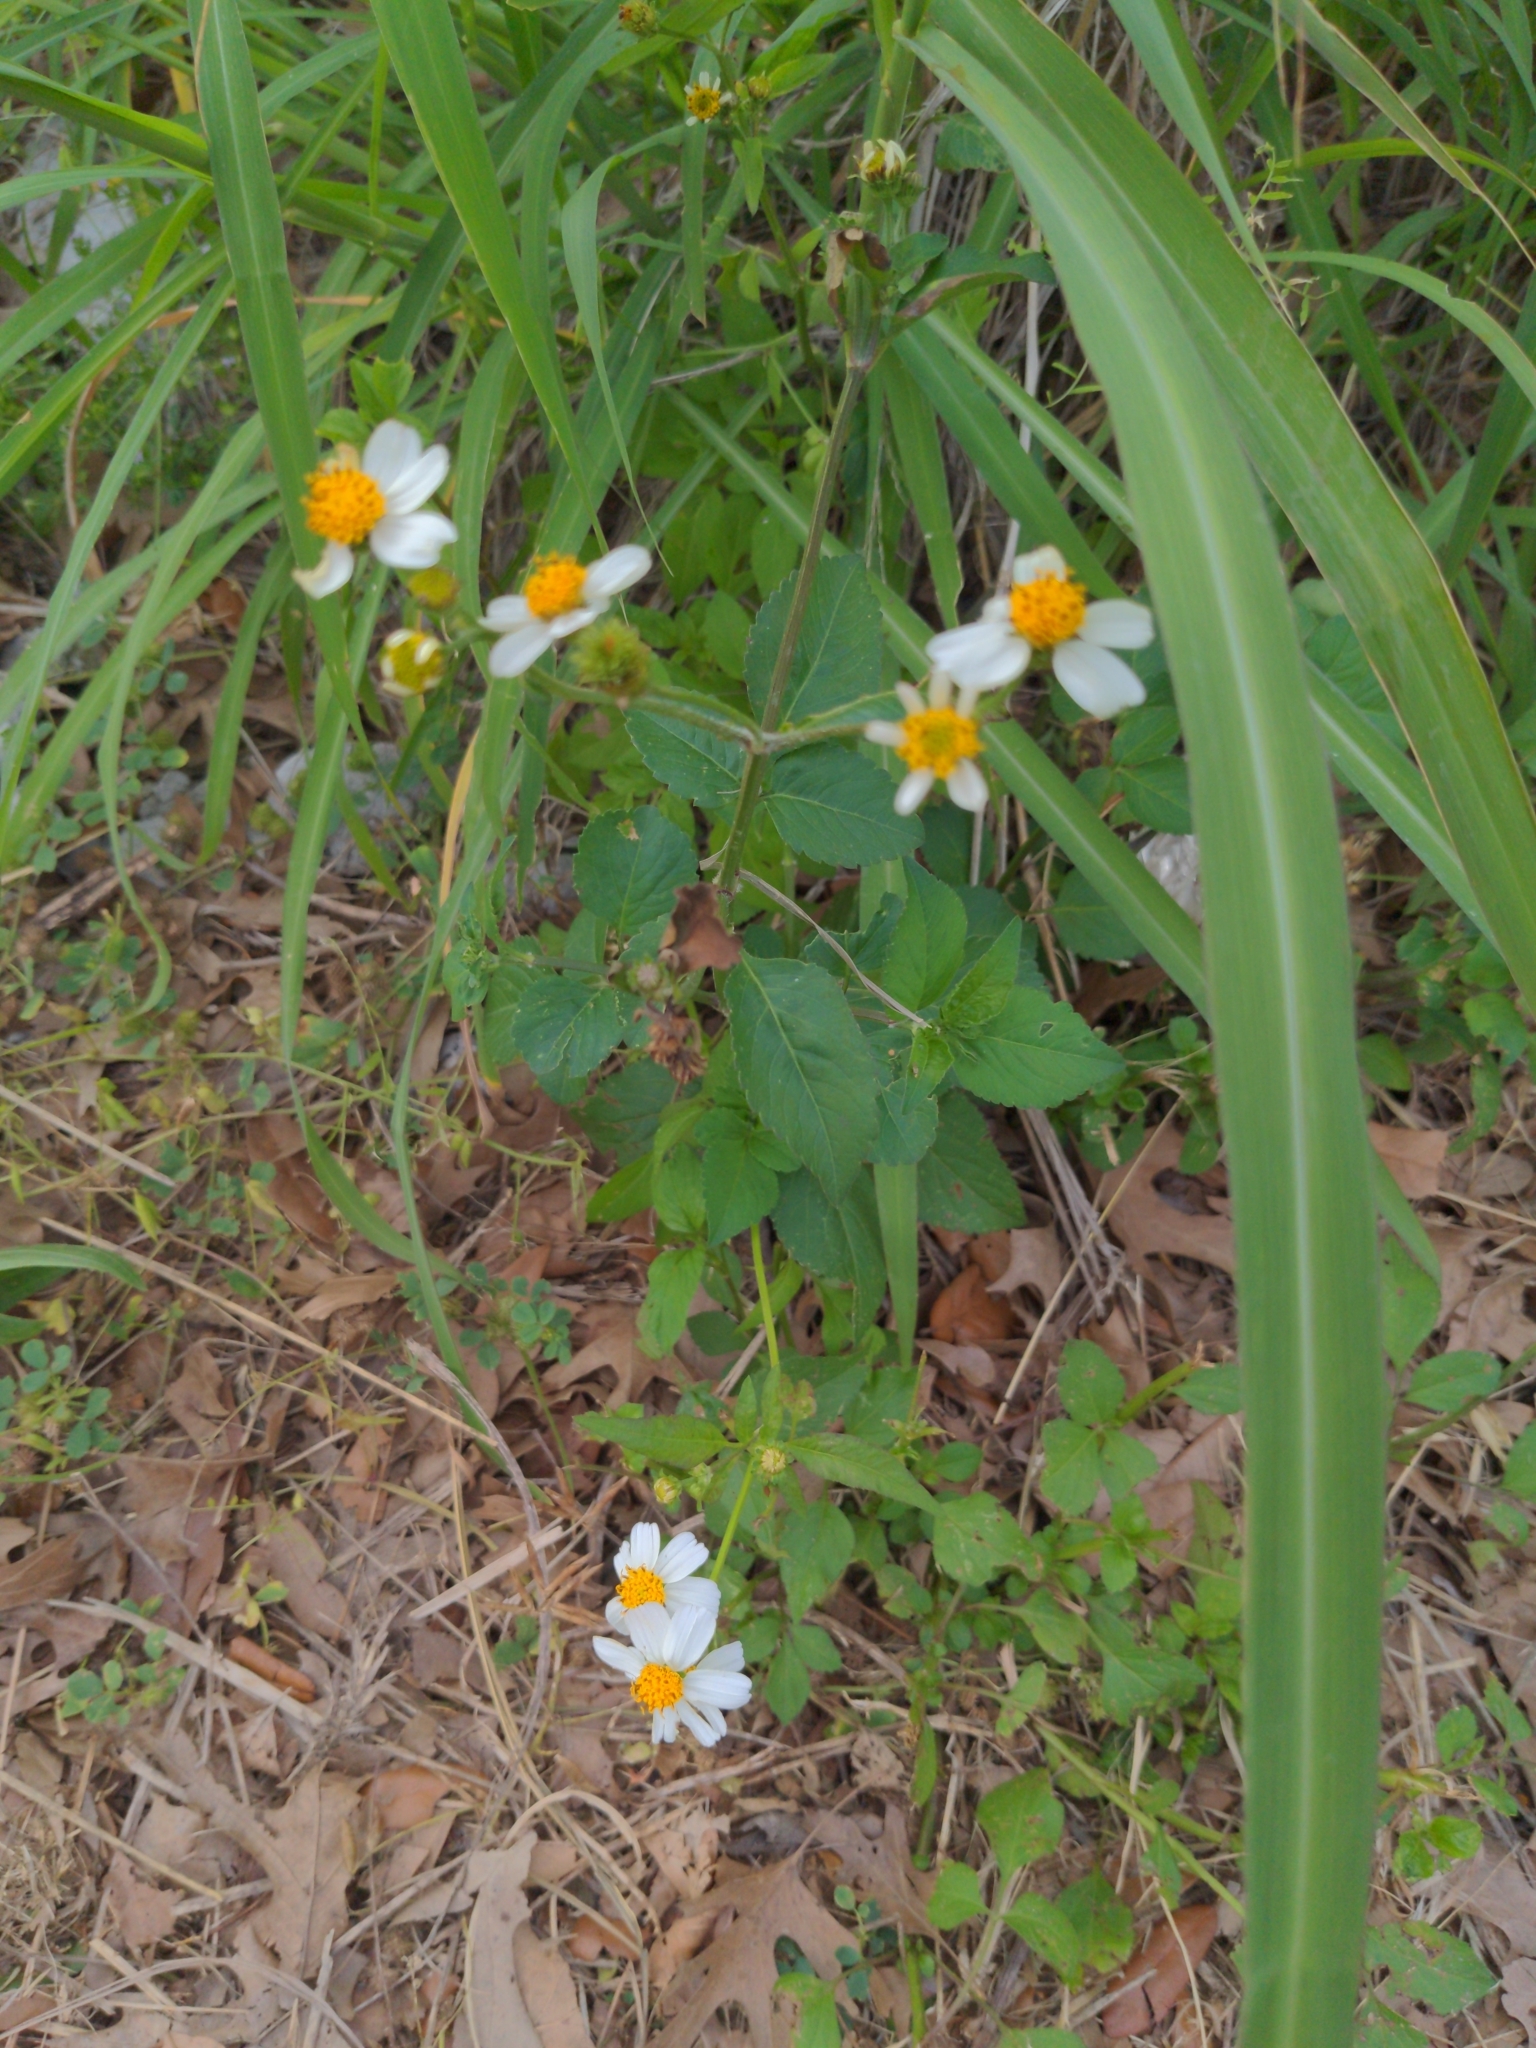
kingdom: Plantae
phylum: Tracheophyta
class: Magnoliopsida
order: Asterales
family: Asteraceae
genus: Bidens
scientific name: Bidens alba
